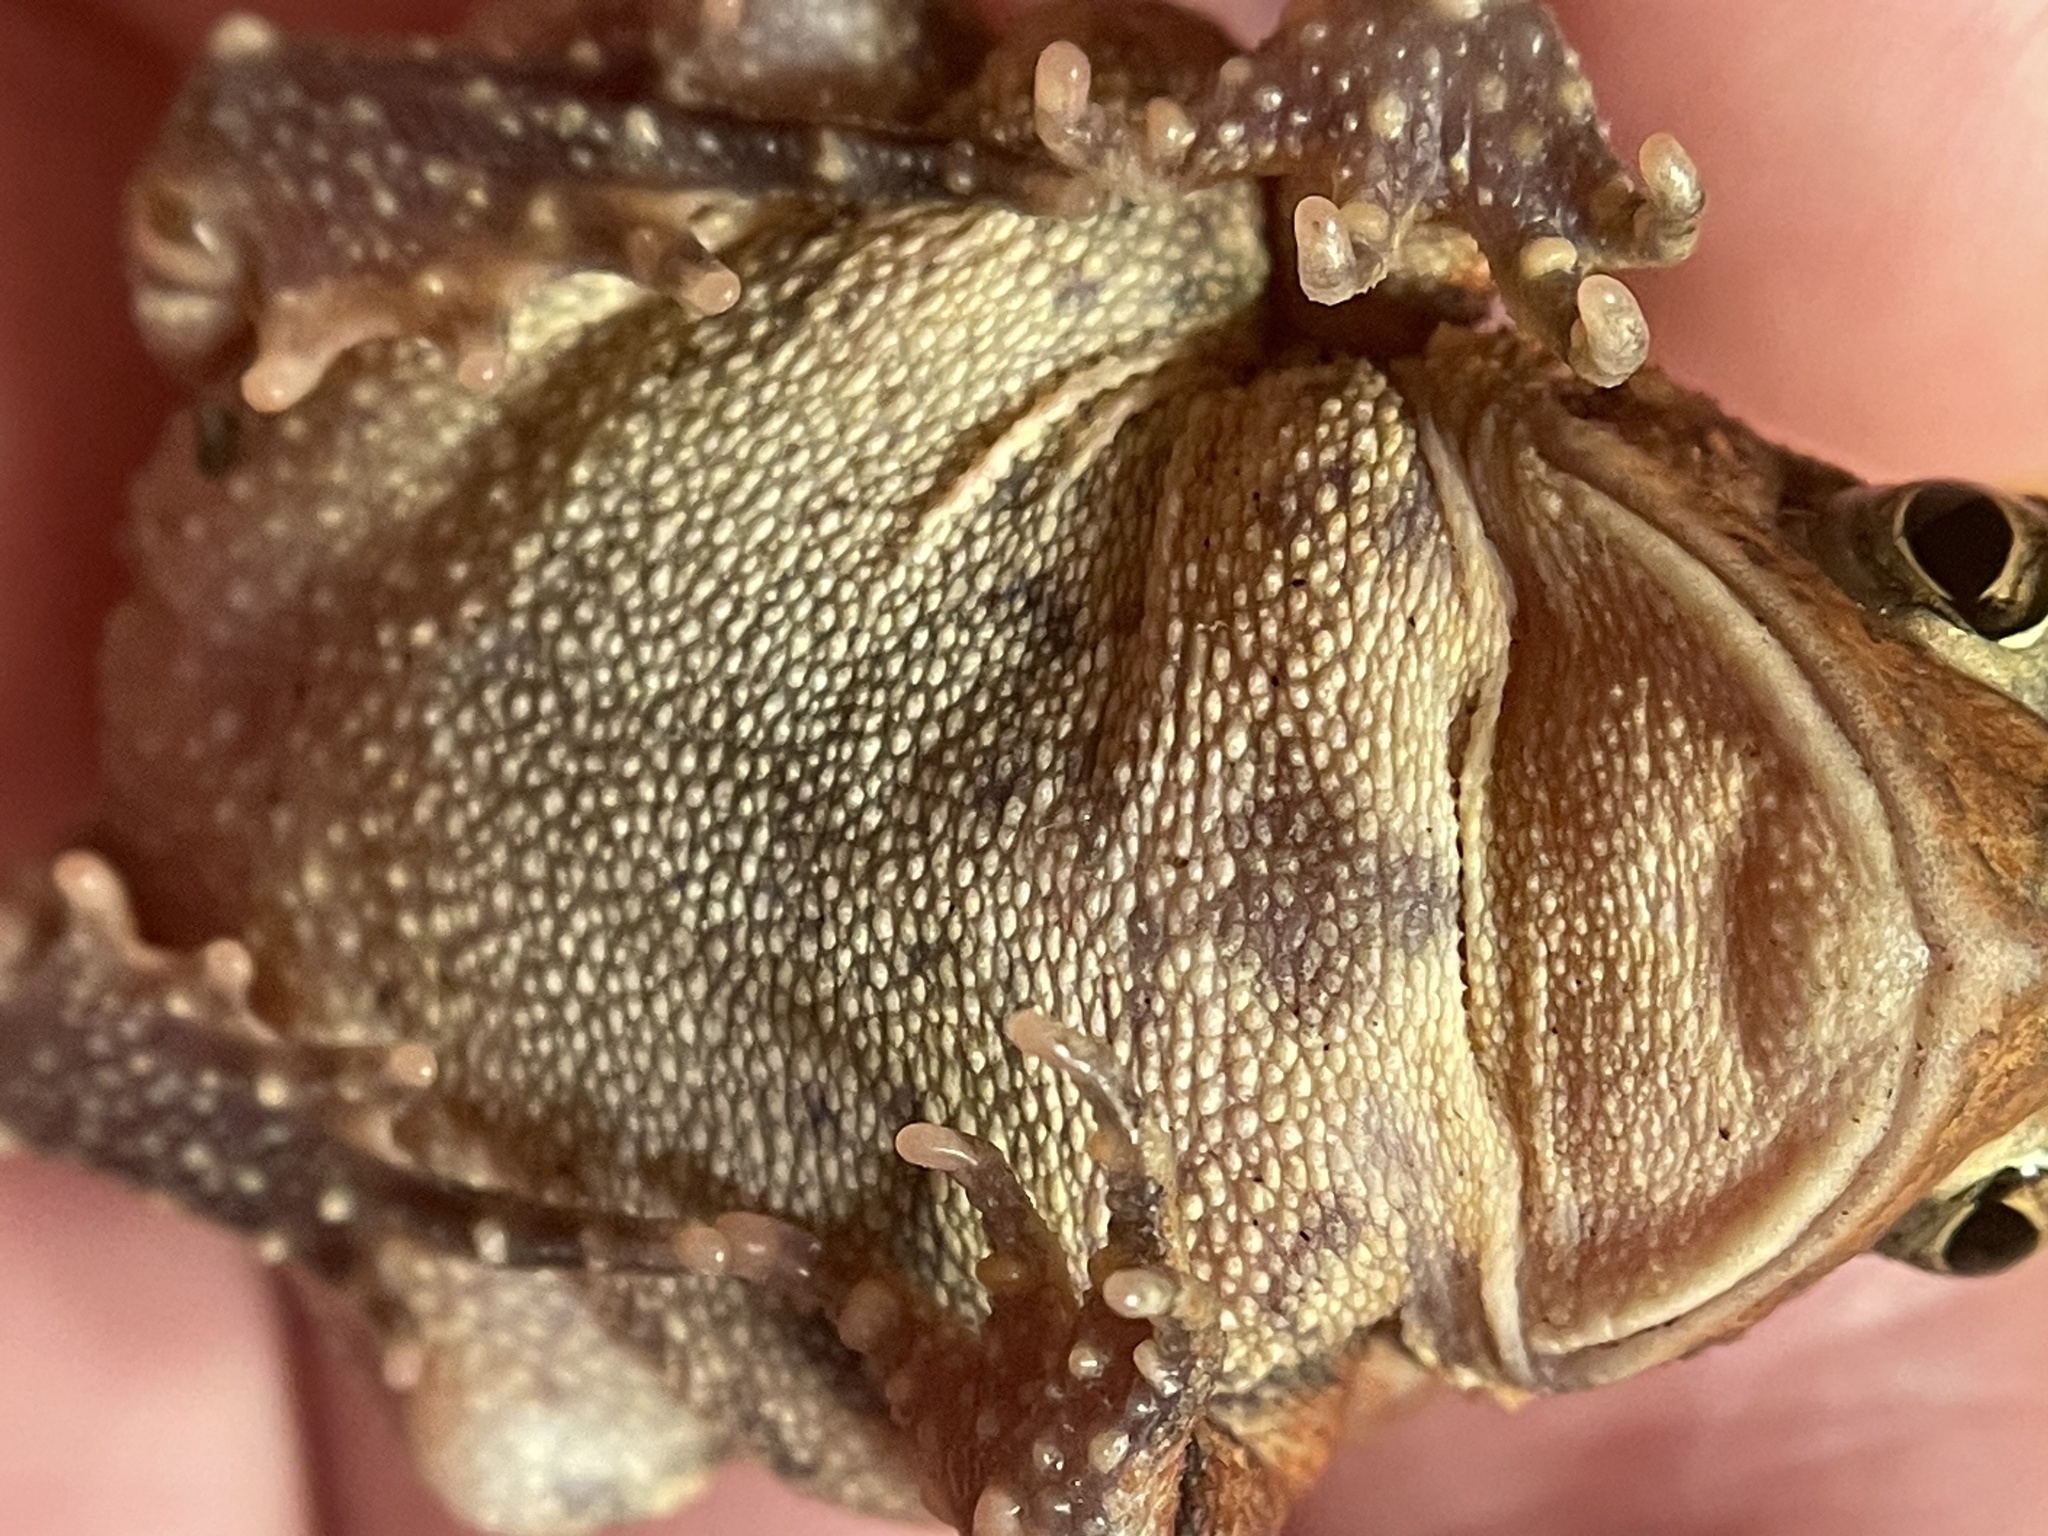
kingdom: Animalia
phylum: Chordata
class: Amphibia
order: Anura
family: Bufonidae
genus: Anaxyrus
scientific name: Anaxyrus americanus
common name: American toad
